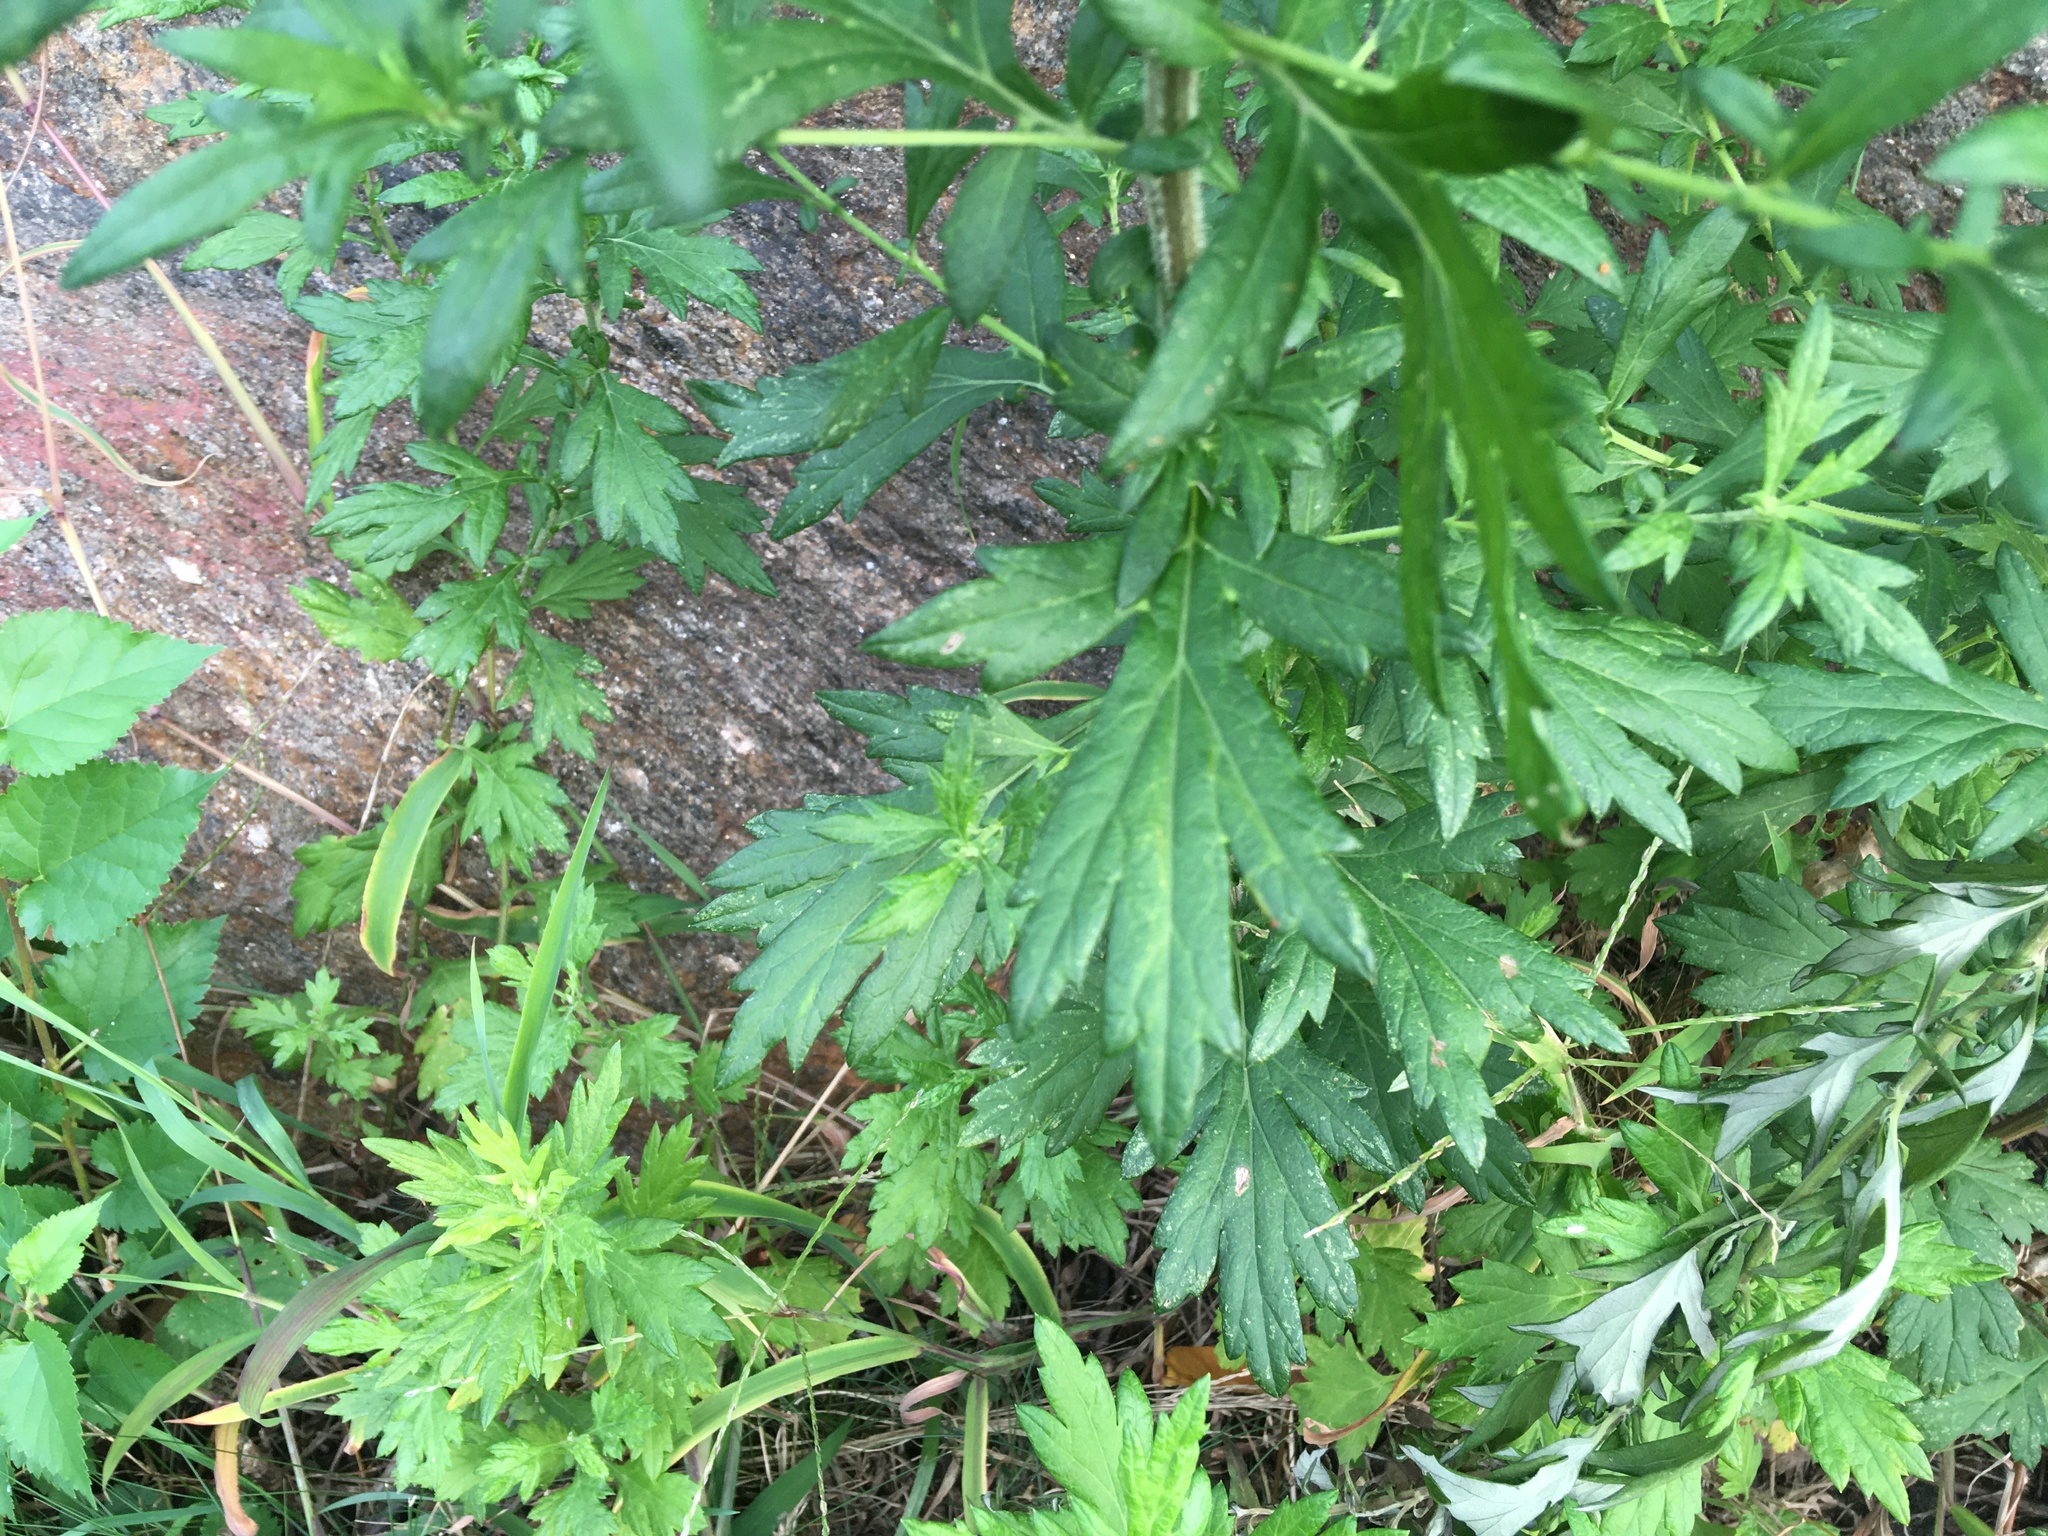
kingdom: Plantae
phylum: Tracheophyta
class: Magnoliopsida
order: Asterales
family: Asteraceae
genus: Artemisia
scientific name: Artemisia vulgaris
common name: Mugwort
